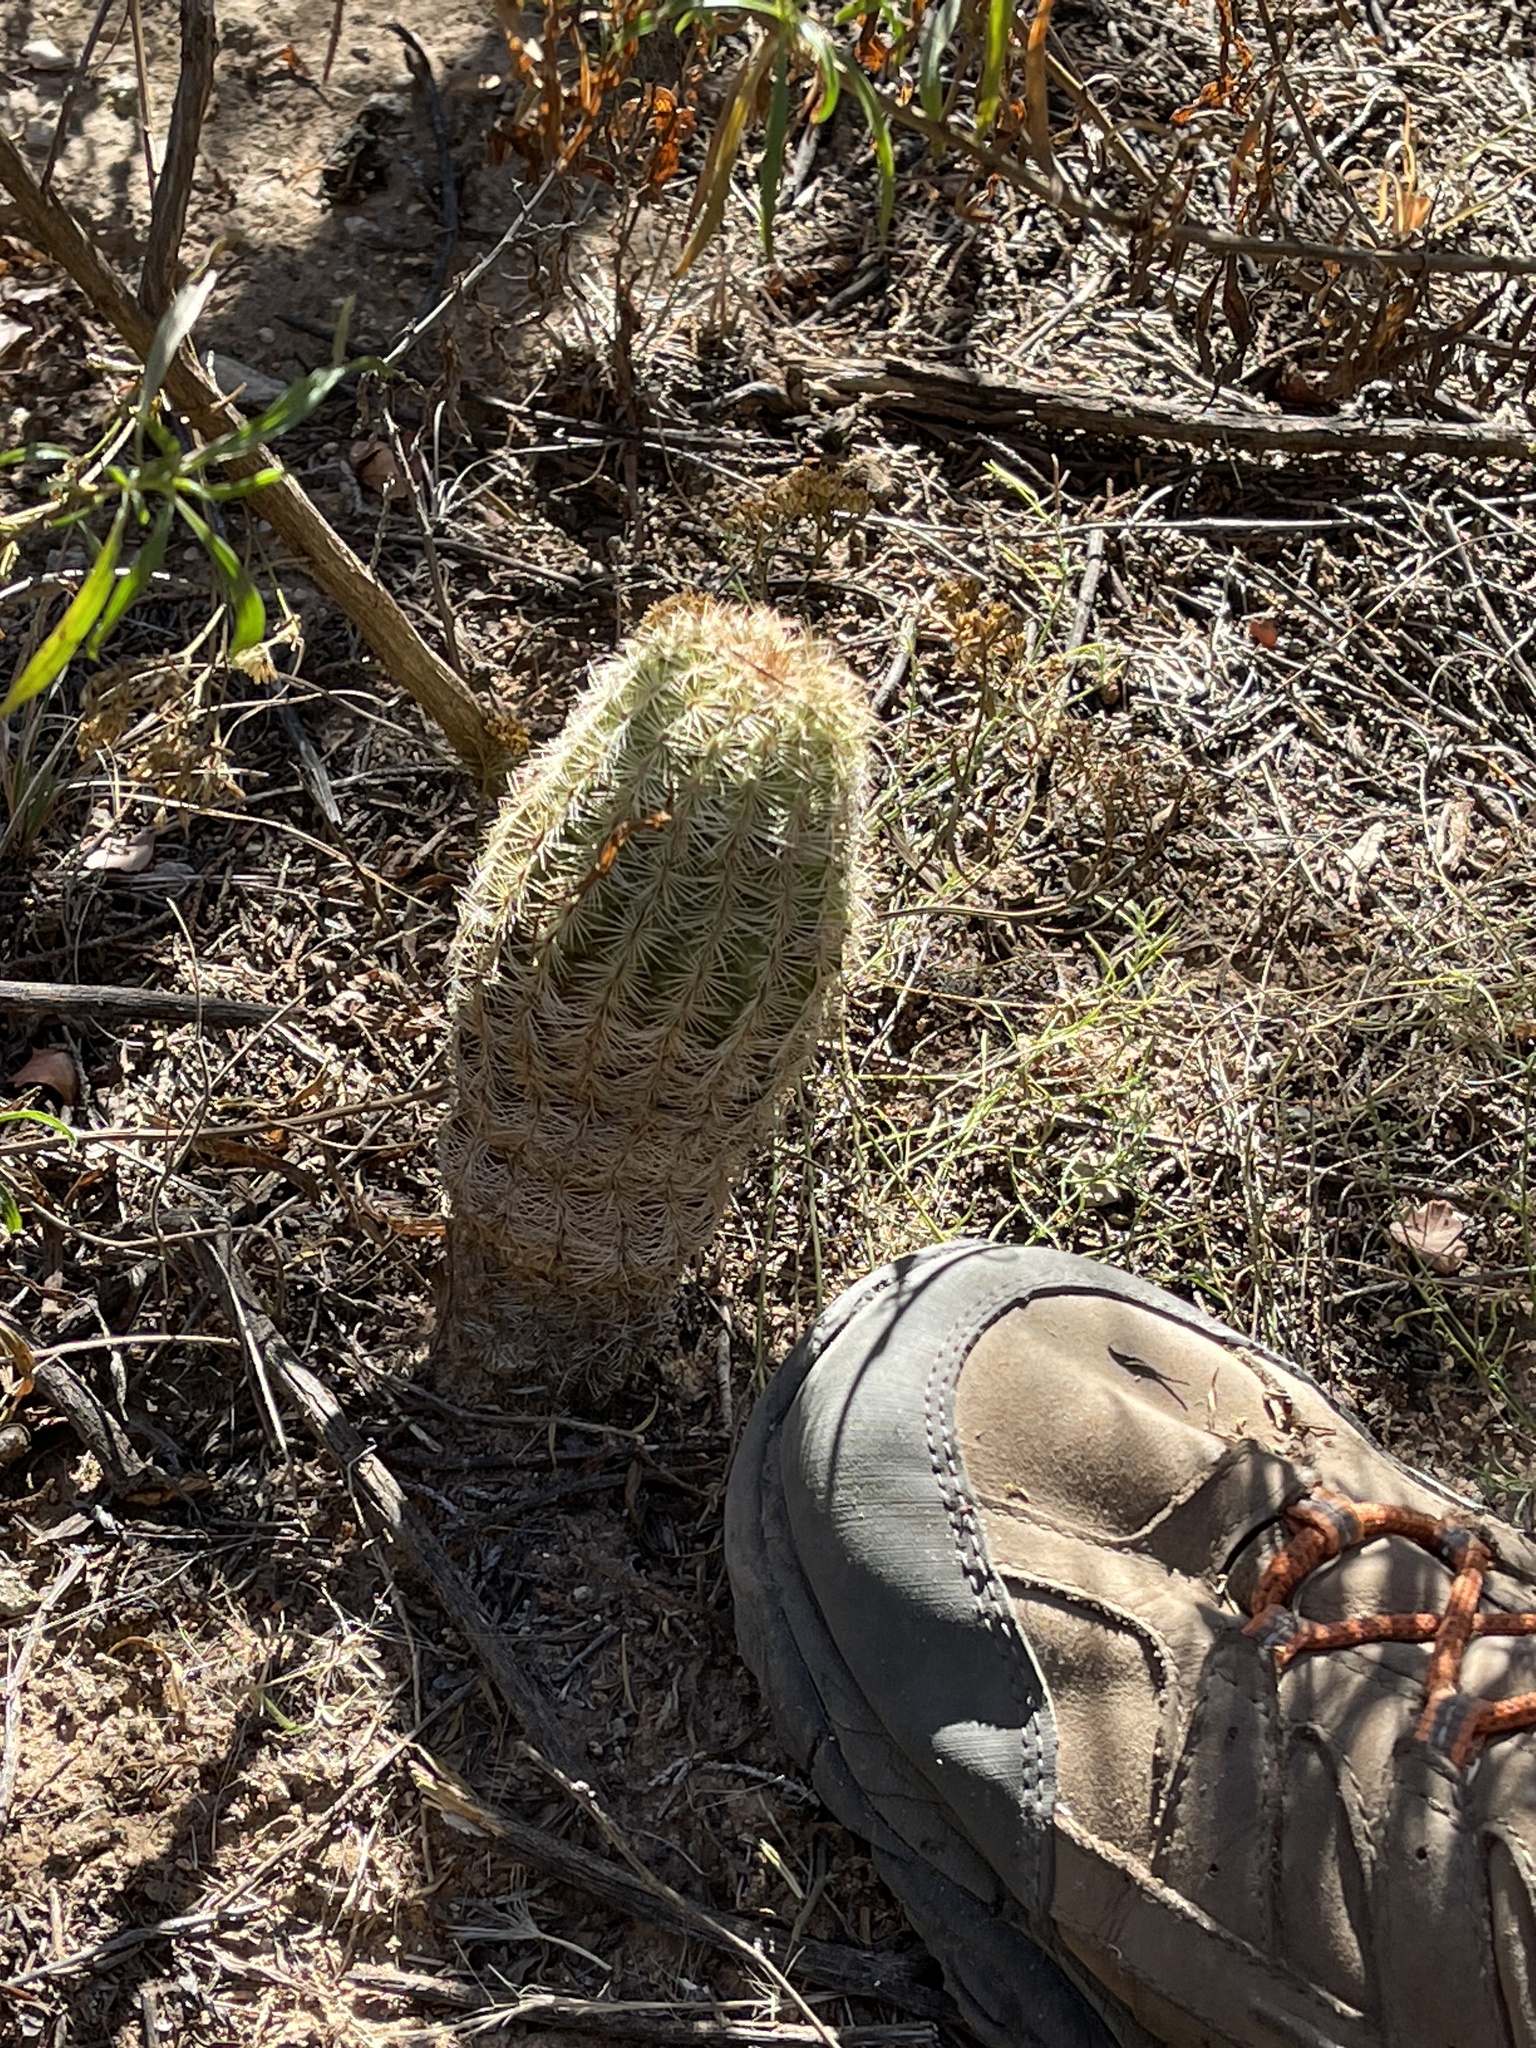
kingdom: Plantae
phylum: Tracheophyta
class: Magnoliopsida
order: Caryophyllales
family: Cactaceae
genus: Echinocereus
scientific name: Echinocereus reichenbachii
